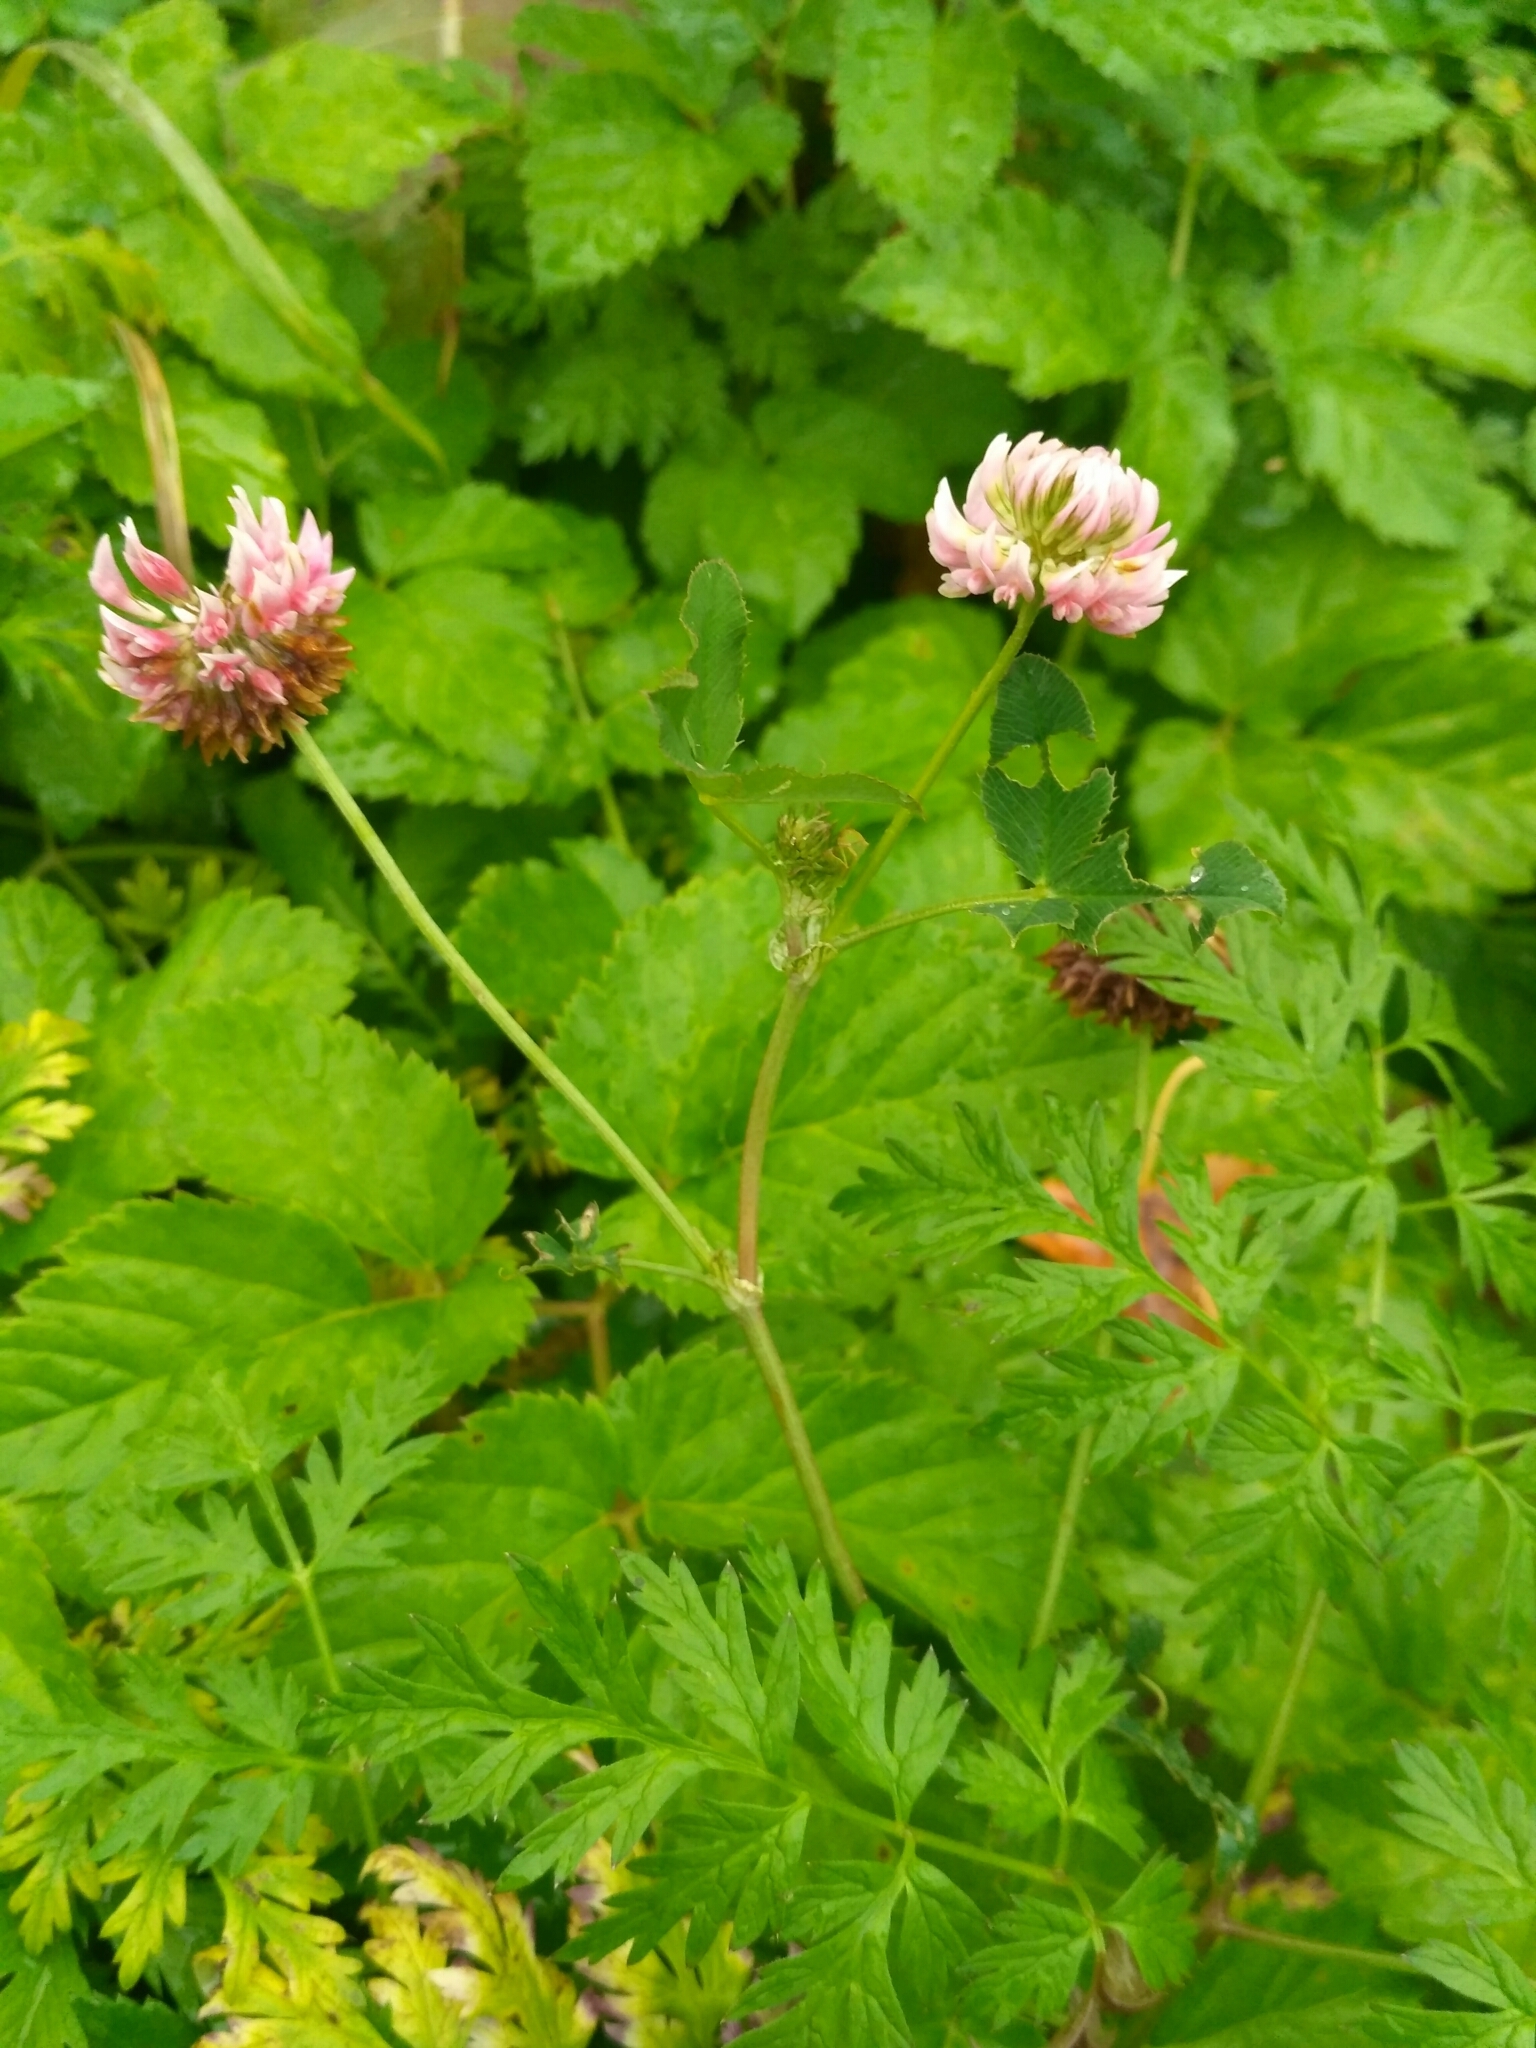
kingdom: Plantae
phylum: Tracheophyta
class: Magnoliopsida
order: Fabales
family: Fabaceae
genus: Trifolium
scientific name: Trifolium hybridum
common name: Alsike clover
